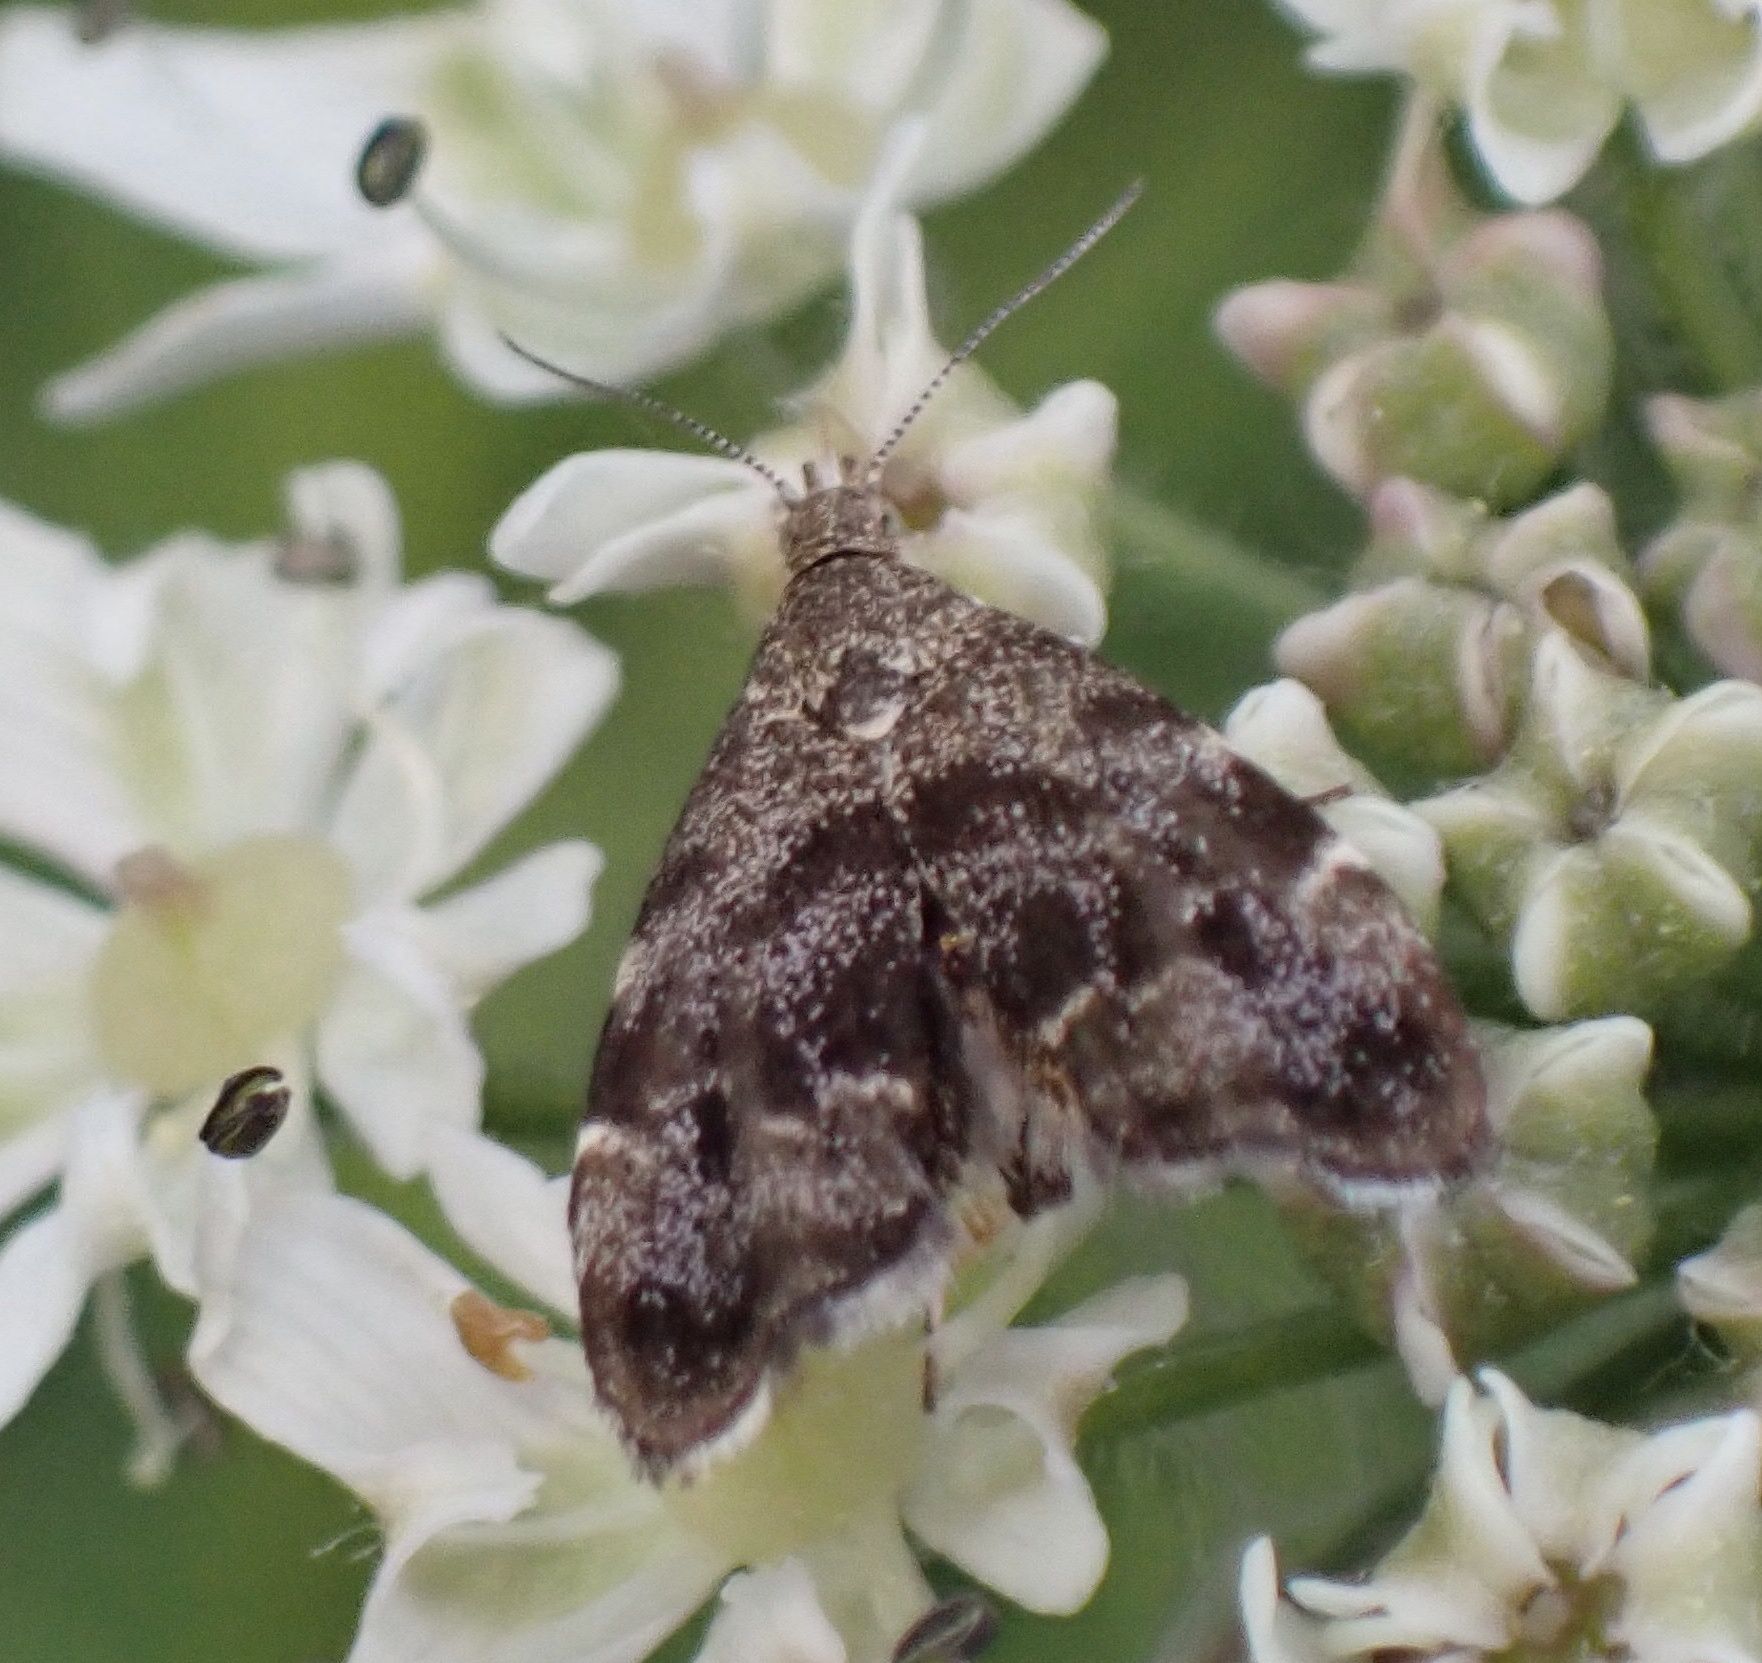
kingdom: Animalia
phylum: Arthropoda
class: Insecta
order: Lepidoptera
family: Choreutidae
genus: Anthophila
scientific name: Anthophila fabriciana
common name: Nettle-tap
